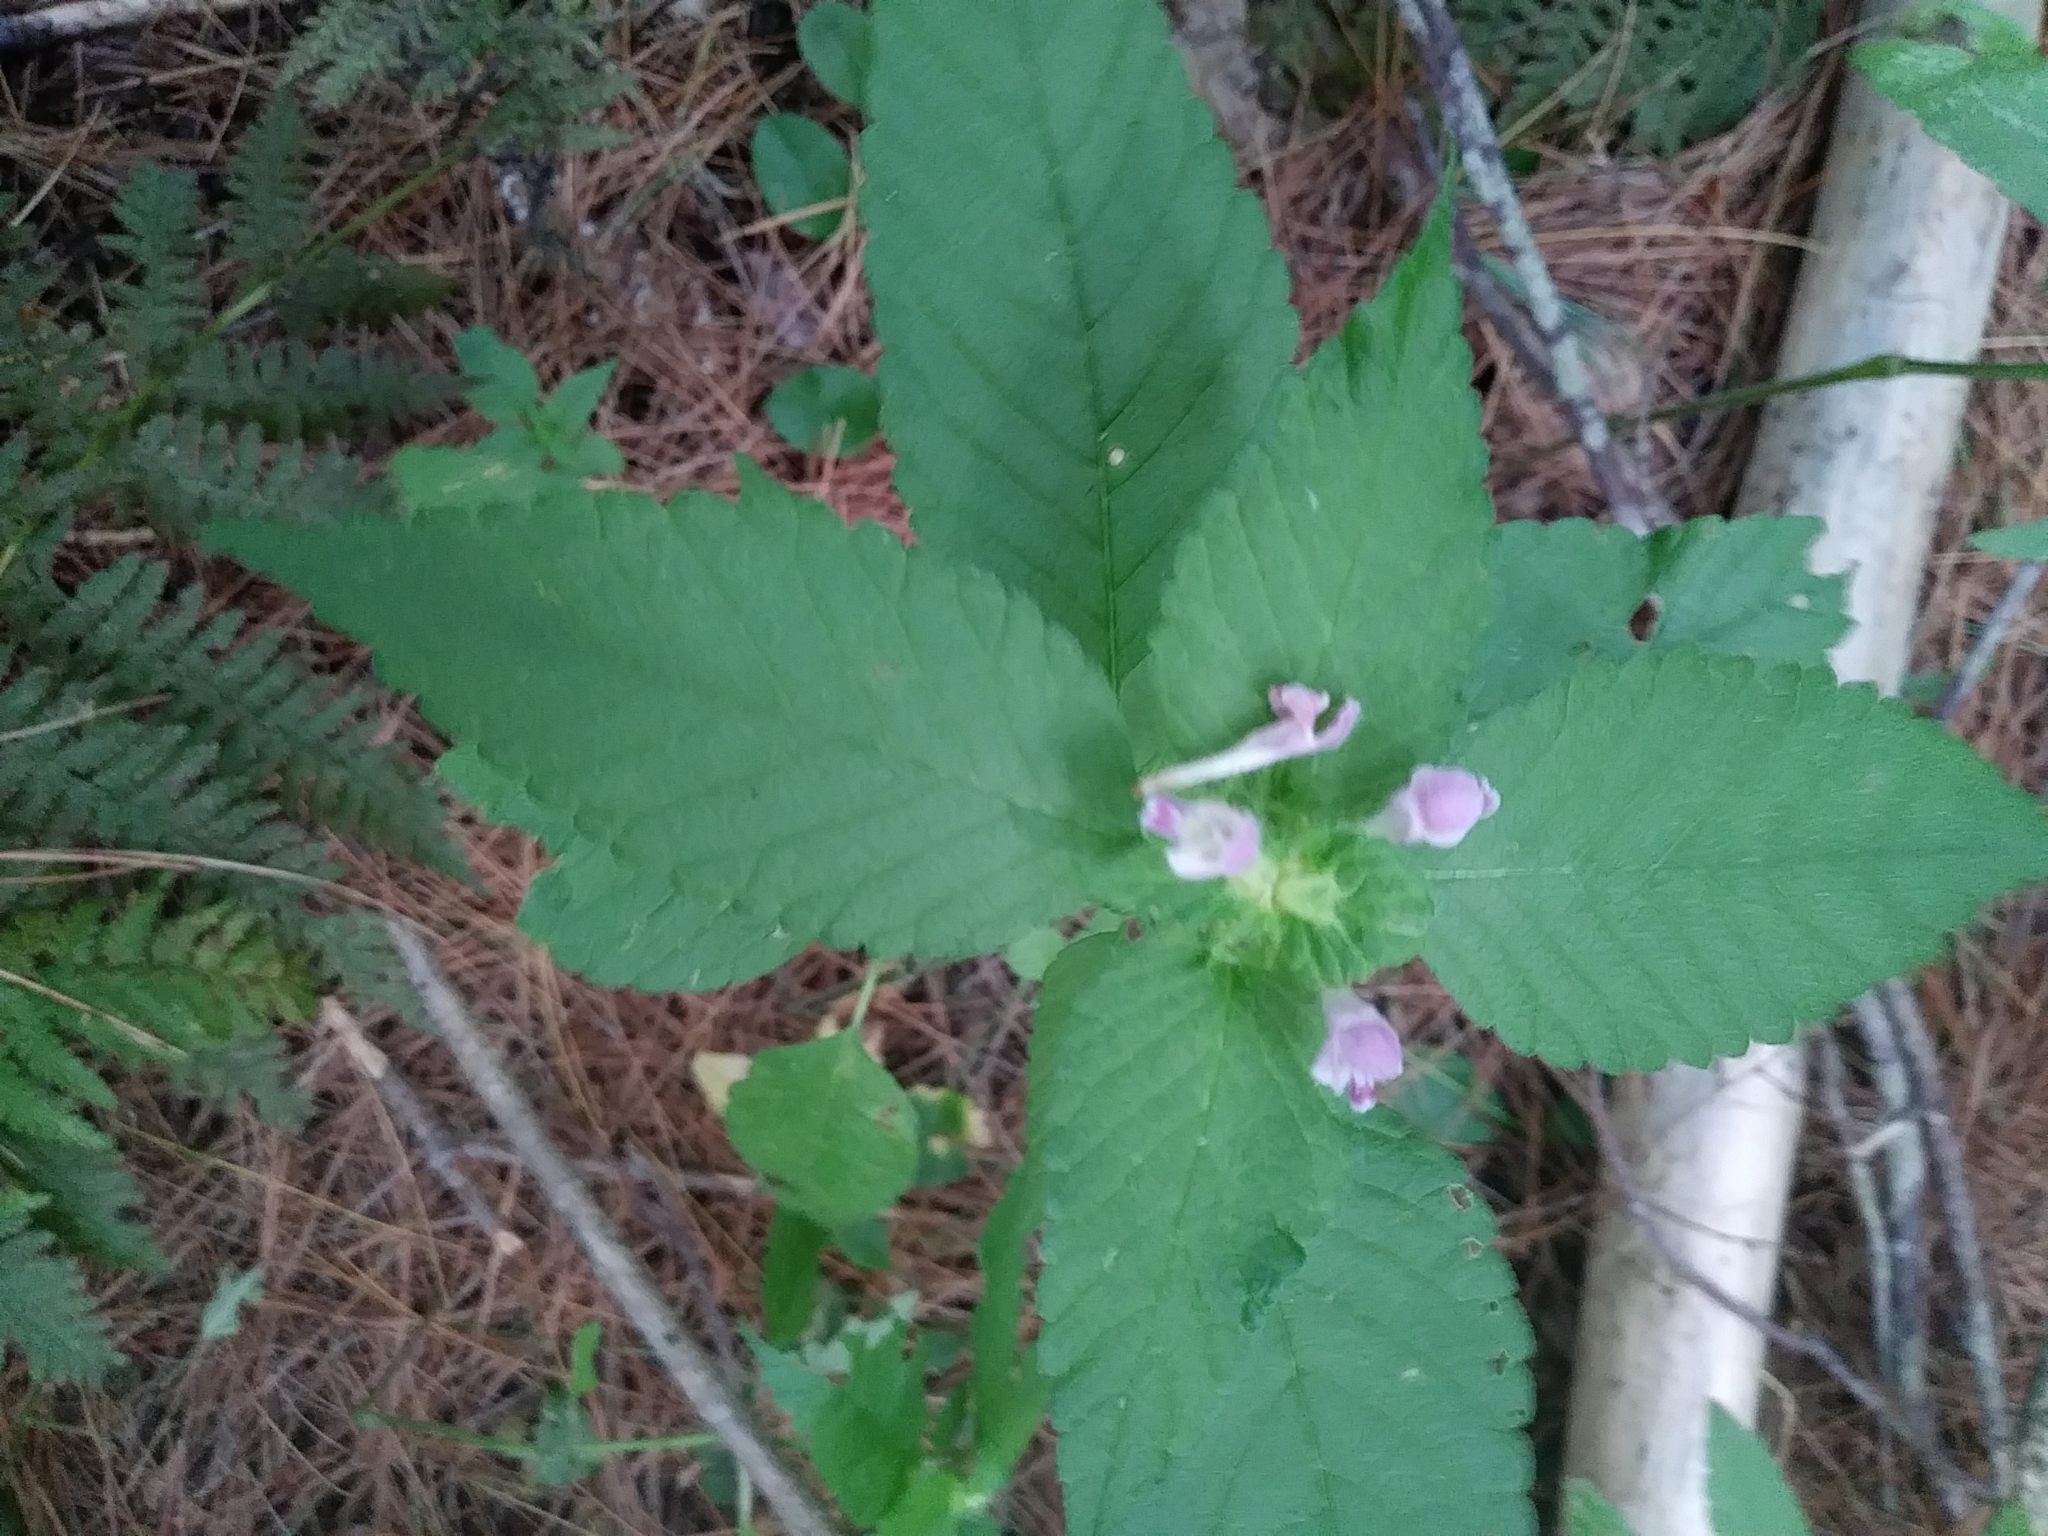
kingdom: Plantae
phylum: Tracheophyta
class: Magnoliopsida
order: Lamiales
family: Lamiaceae
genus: Galeopsis
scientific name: Galeopsis bifida
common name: Bifid hemp-nettle
